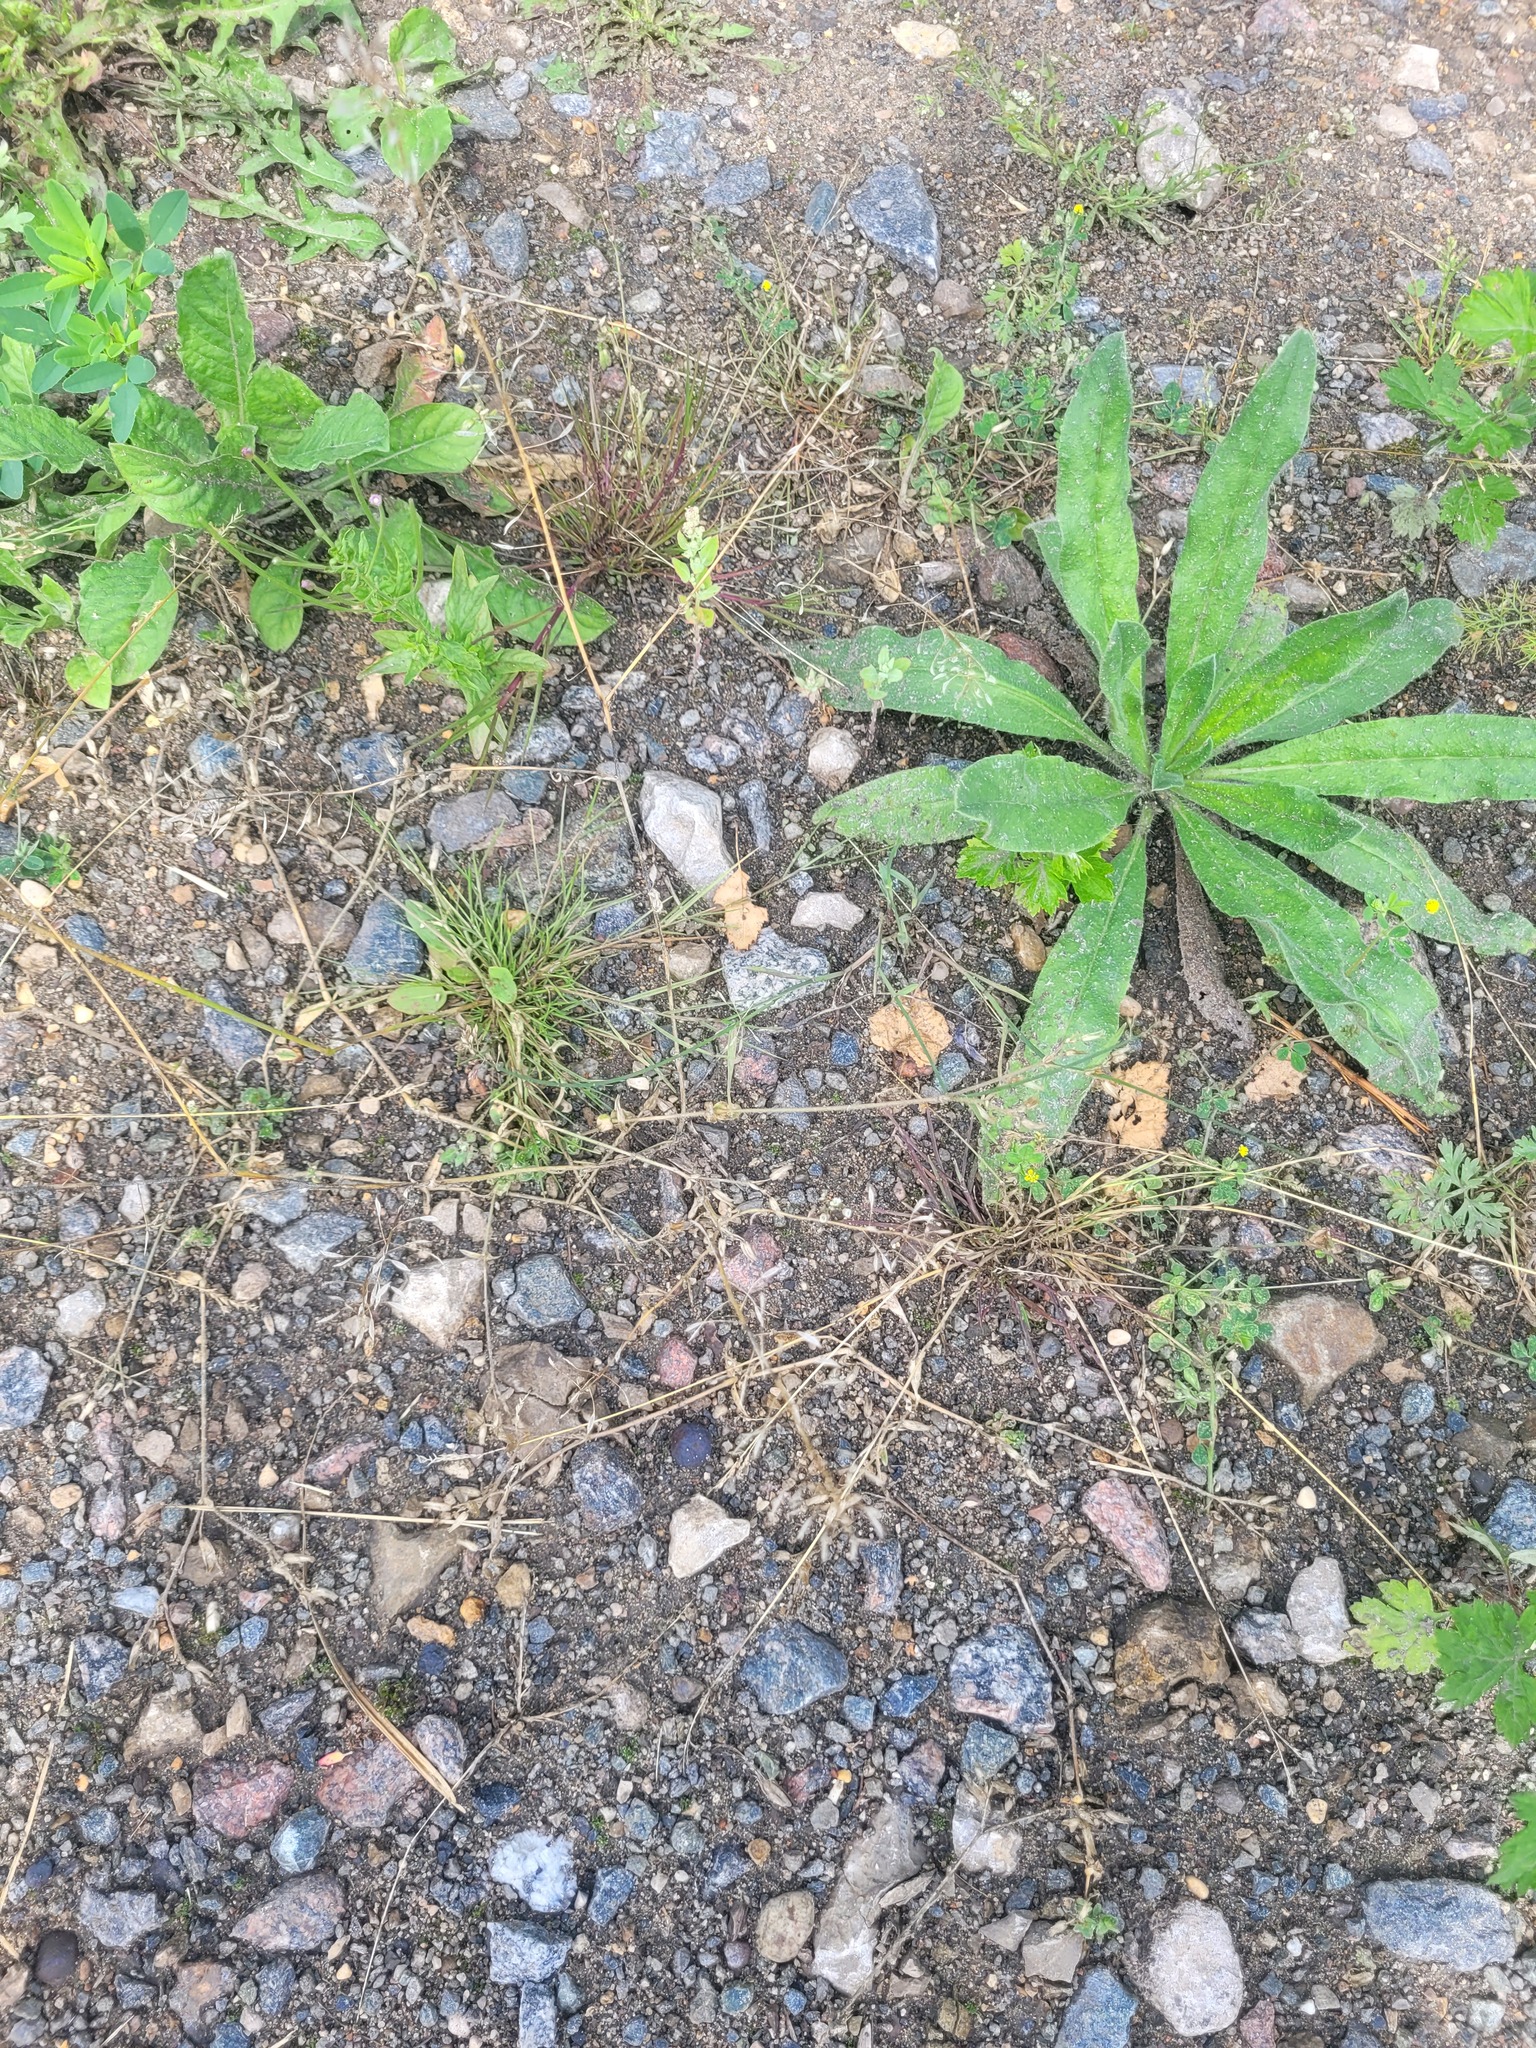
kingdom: Plantae
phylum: Tracheophyta
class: Magnoliopsida
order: Brassicales
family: Brassicaceae
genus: Capsella
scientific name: Capsella bursa-pastoris
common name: Shepherd's purse
